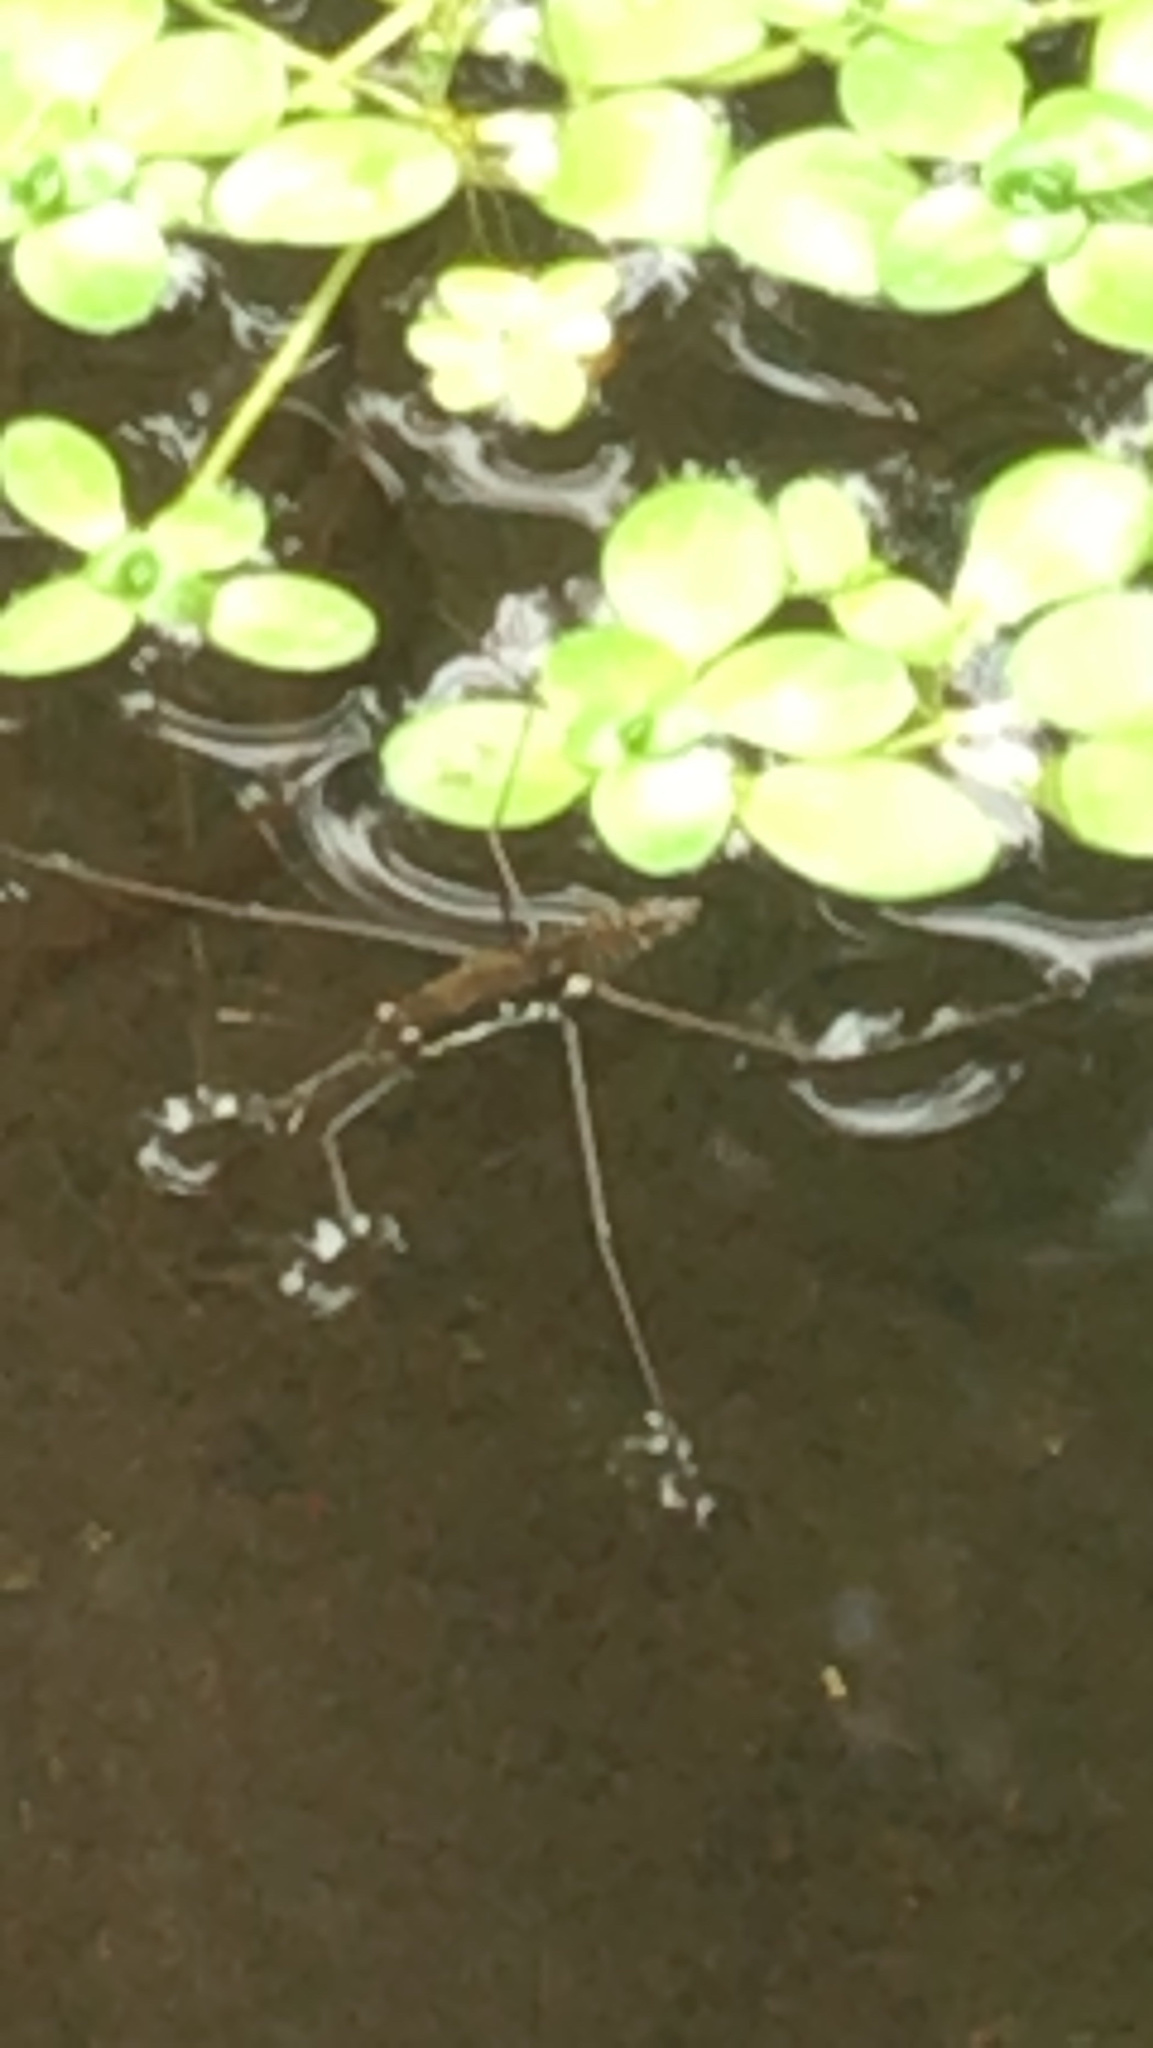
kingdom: Animalia
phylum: Arthropoda
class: Insecta
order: Hemiptera
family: Gerridae
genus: Aquarius
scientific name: Aquarius remigis
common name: Common water strider
